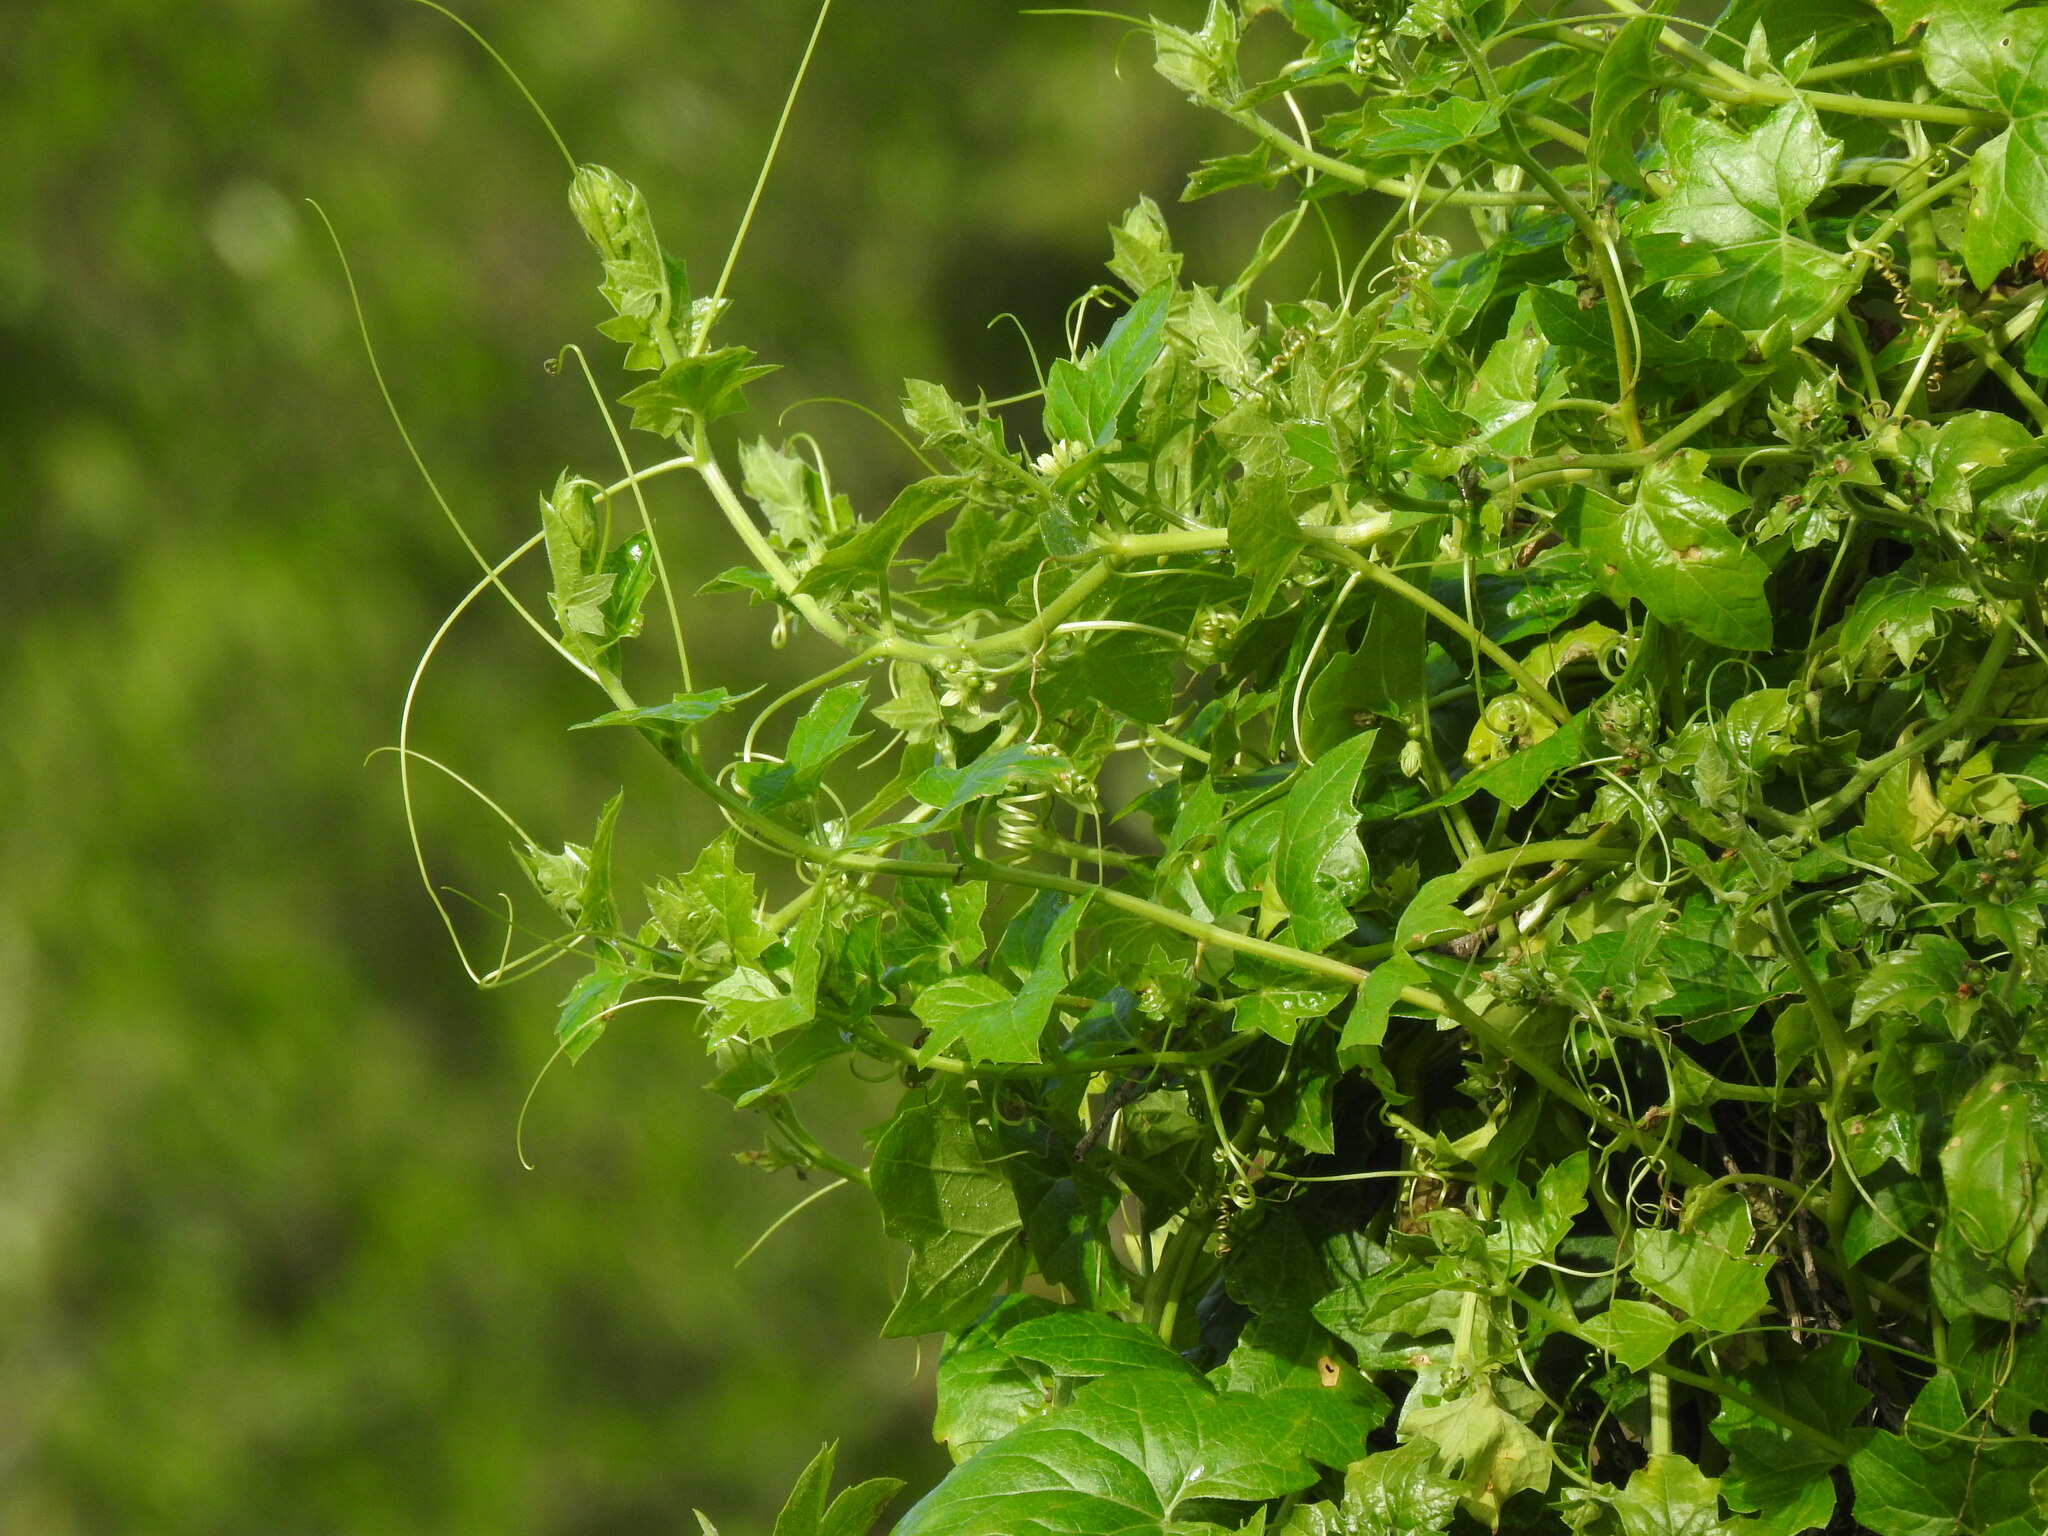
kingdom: Plantae
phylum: Tracheophyta
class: Magnoliopsida
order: Cucurbitales
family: Cucurbitaceae
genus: Bryonia
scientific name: Bryonia cretica
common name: Cretan bryony
